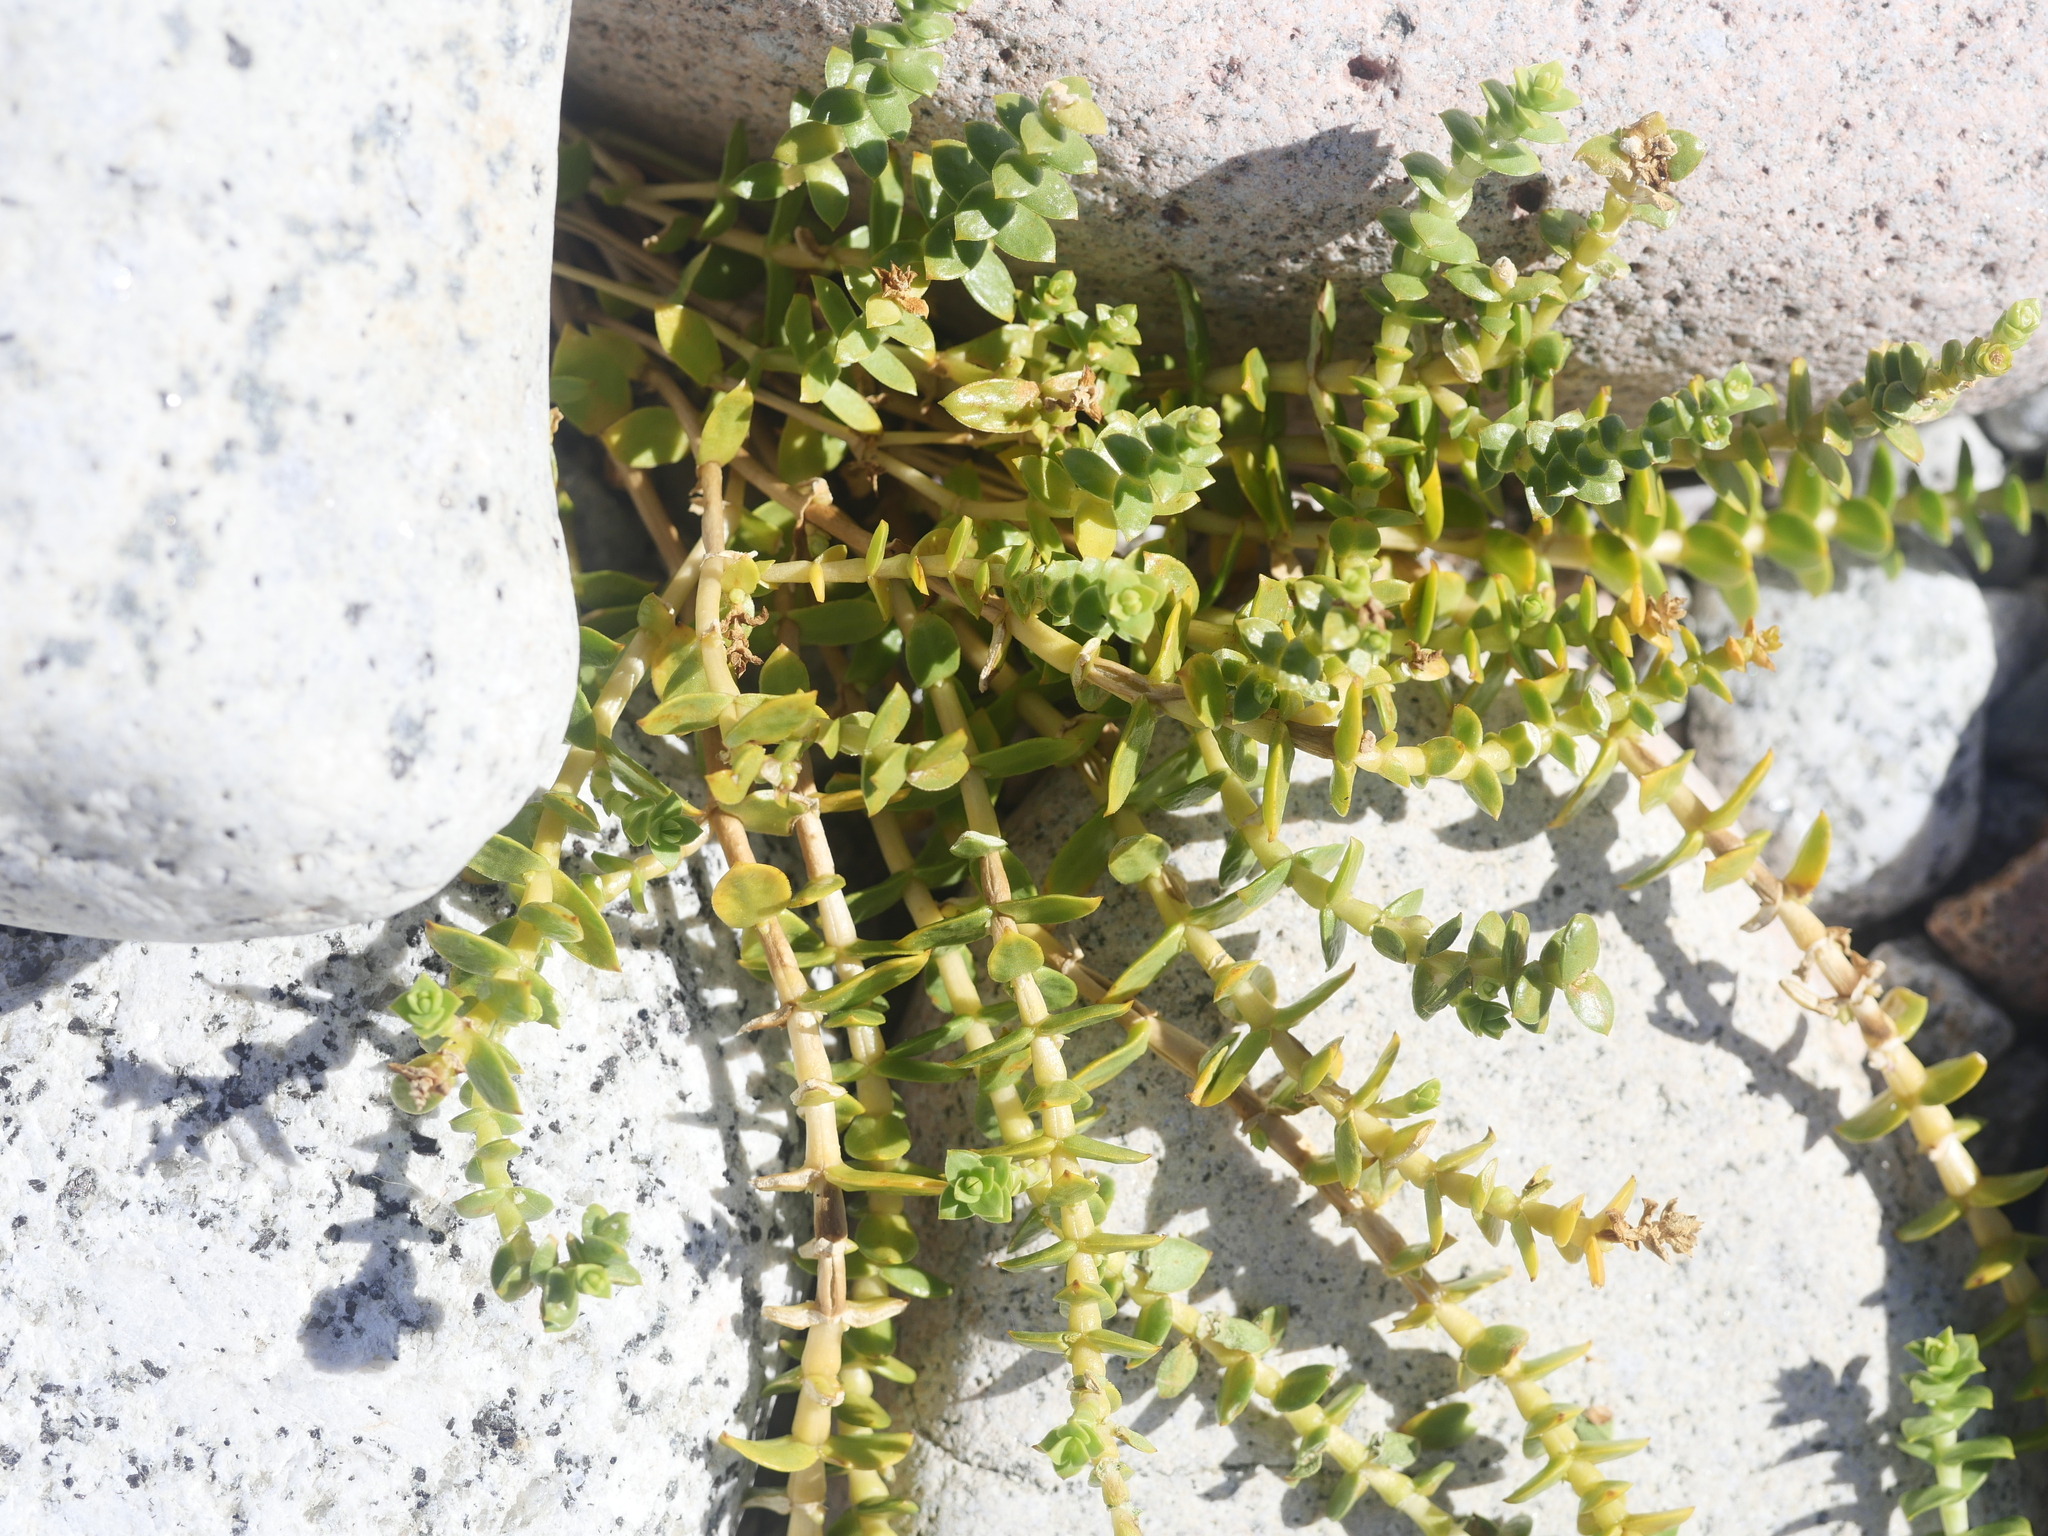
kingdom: Plantae
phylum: Tracheophyta
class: Magnoliopsida
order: Caryophyllales
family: Caryophyllaceae
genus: Honckenya
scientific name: Honckenya peploides
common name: Sea sandwort
